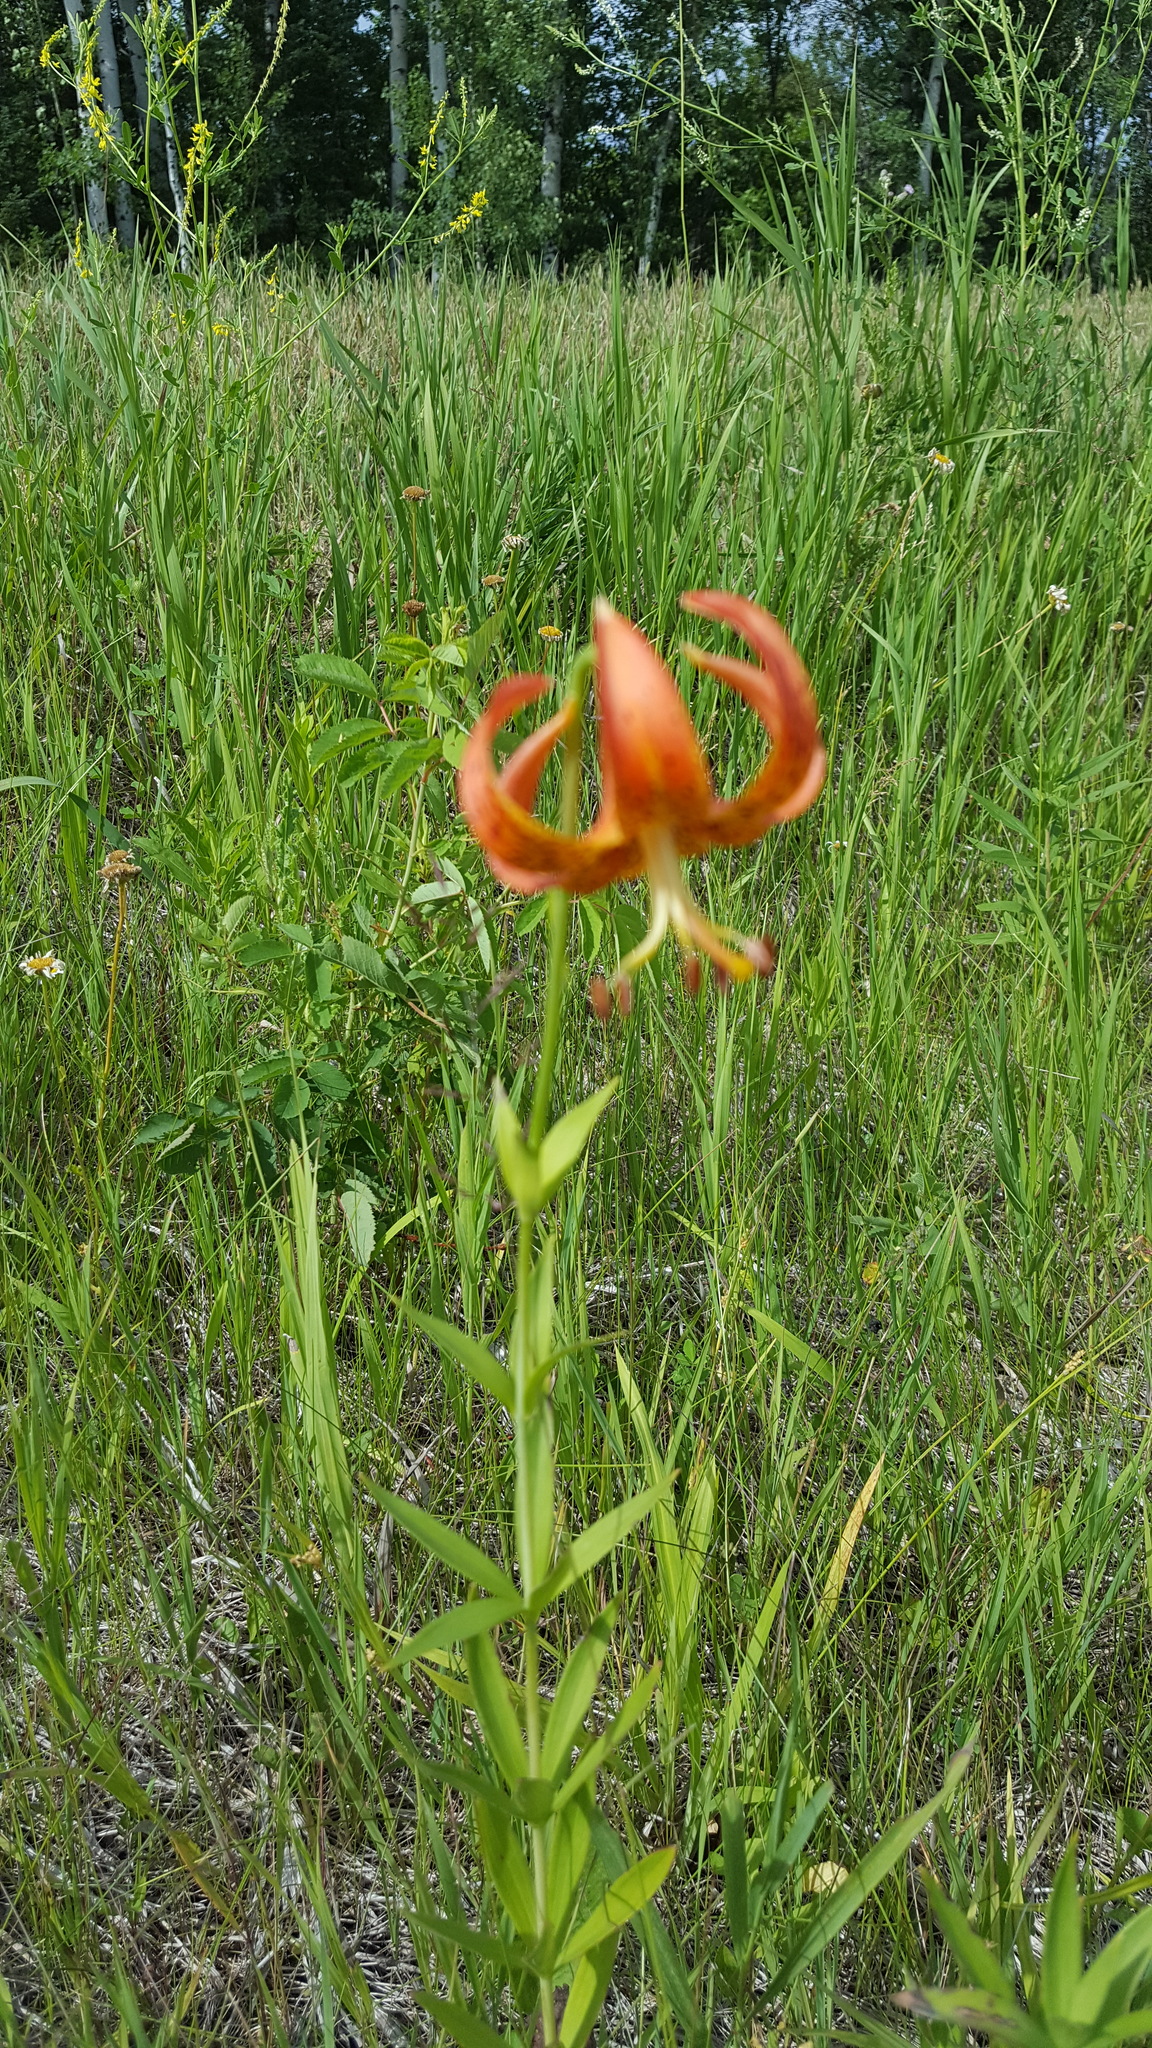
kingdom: Plantae
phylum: Tracheophyta
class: Liliopsida
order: Liliales
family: Liliaceae
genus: Lilium
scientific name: Lilium michiganense
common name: Michigan lily
